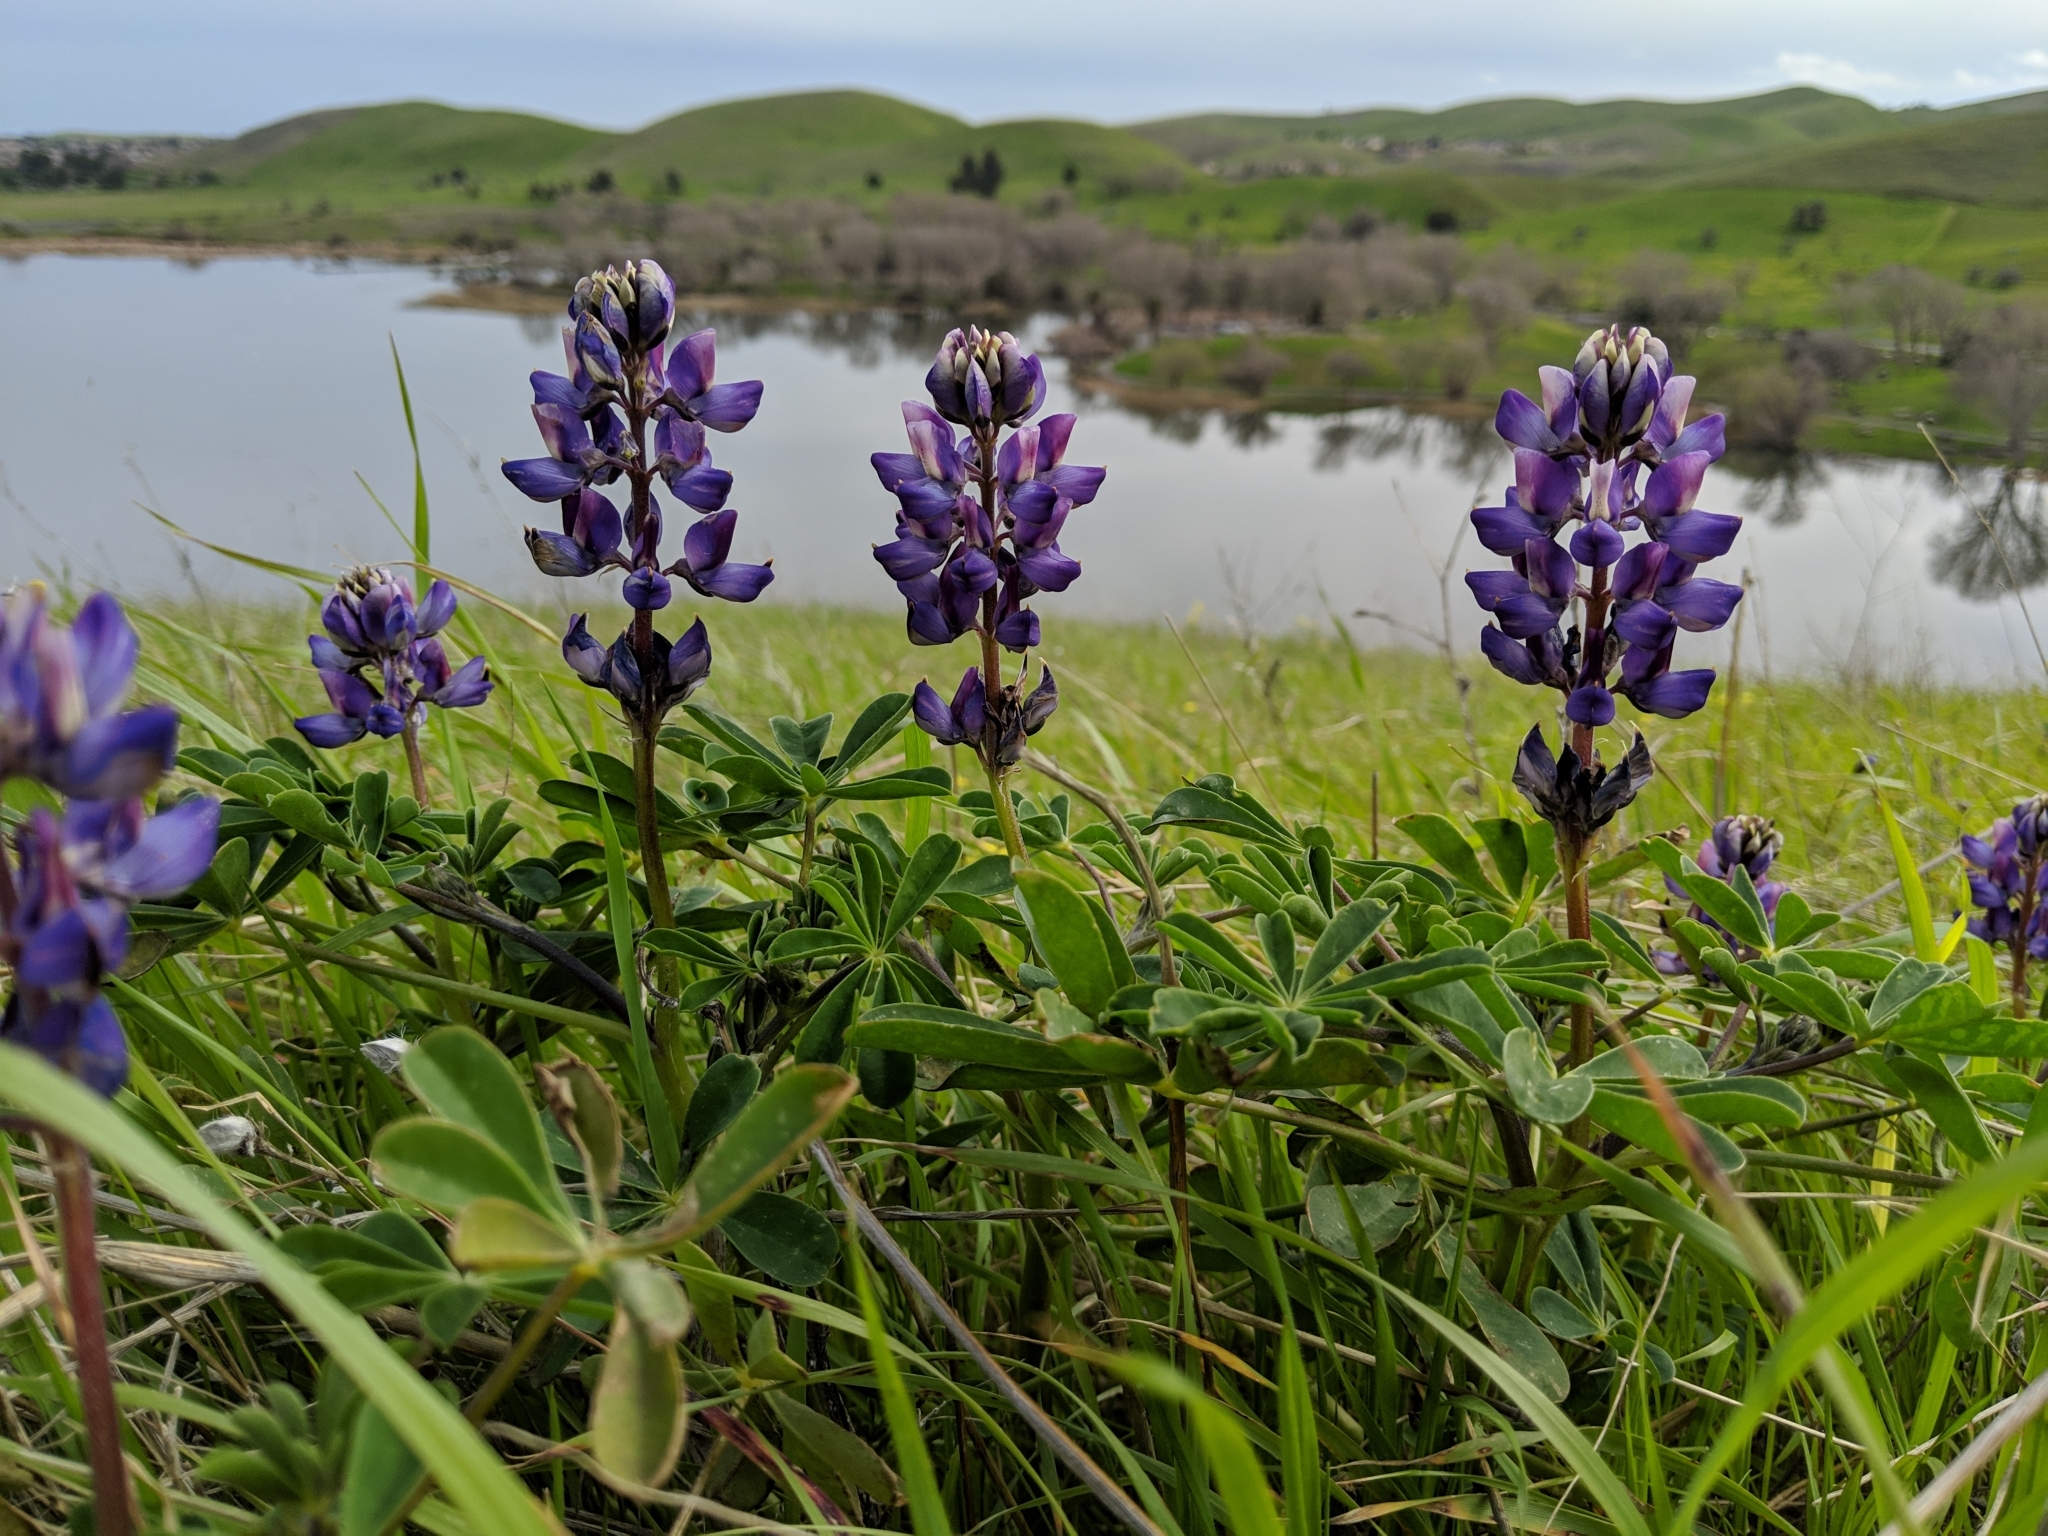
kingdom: Plantae
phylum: Tracheophyta
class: Magnoliopsida
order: Fabales
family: Fabaceae
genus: Lupinus
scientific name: Lupinus succulentus
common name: Arroyo lupine
